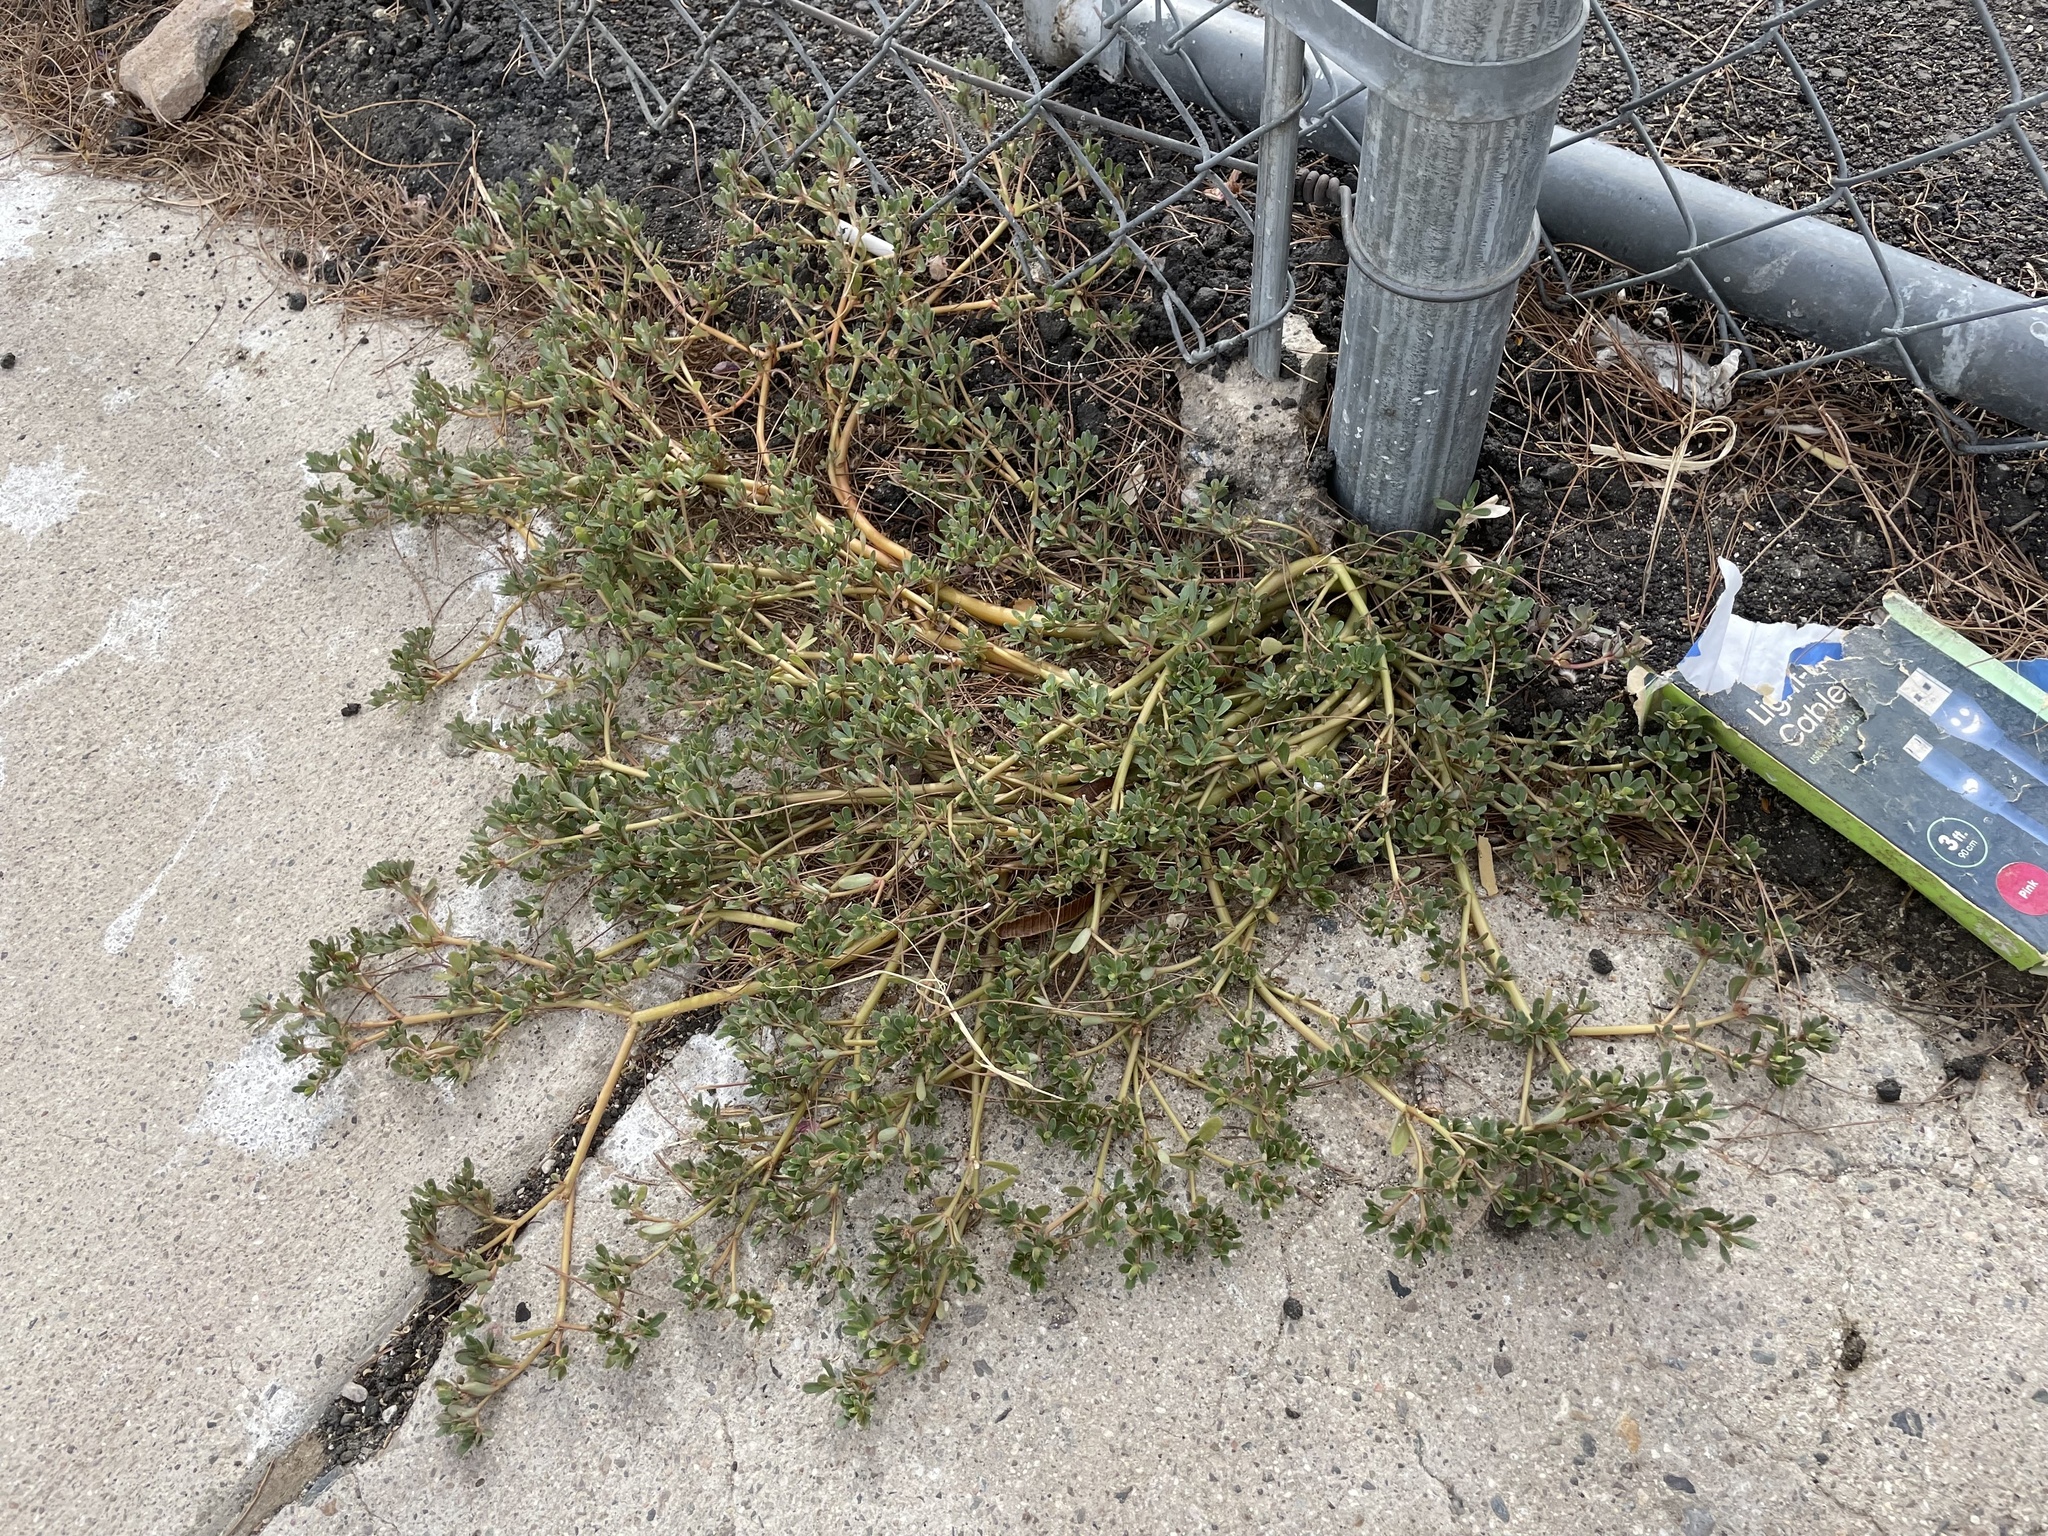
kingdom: Plantae
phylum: Tracheophyta
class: Magnoliopsida
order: Caryophyllales
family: Portulacaceae
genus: Portulaca
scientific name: Portulaca oleracea
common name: Common purslane
